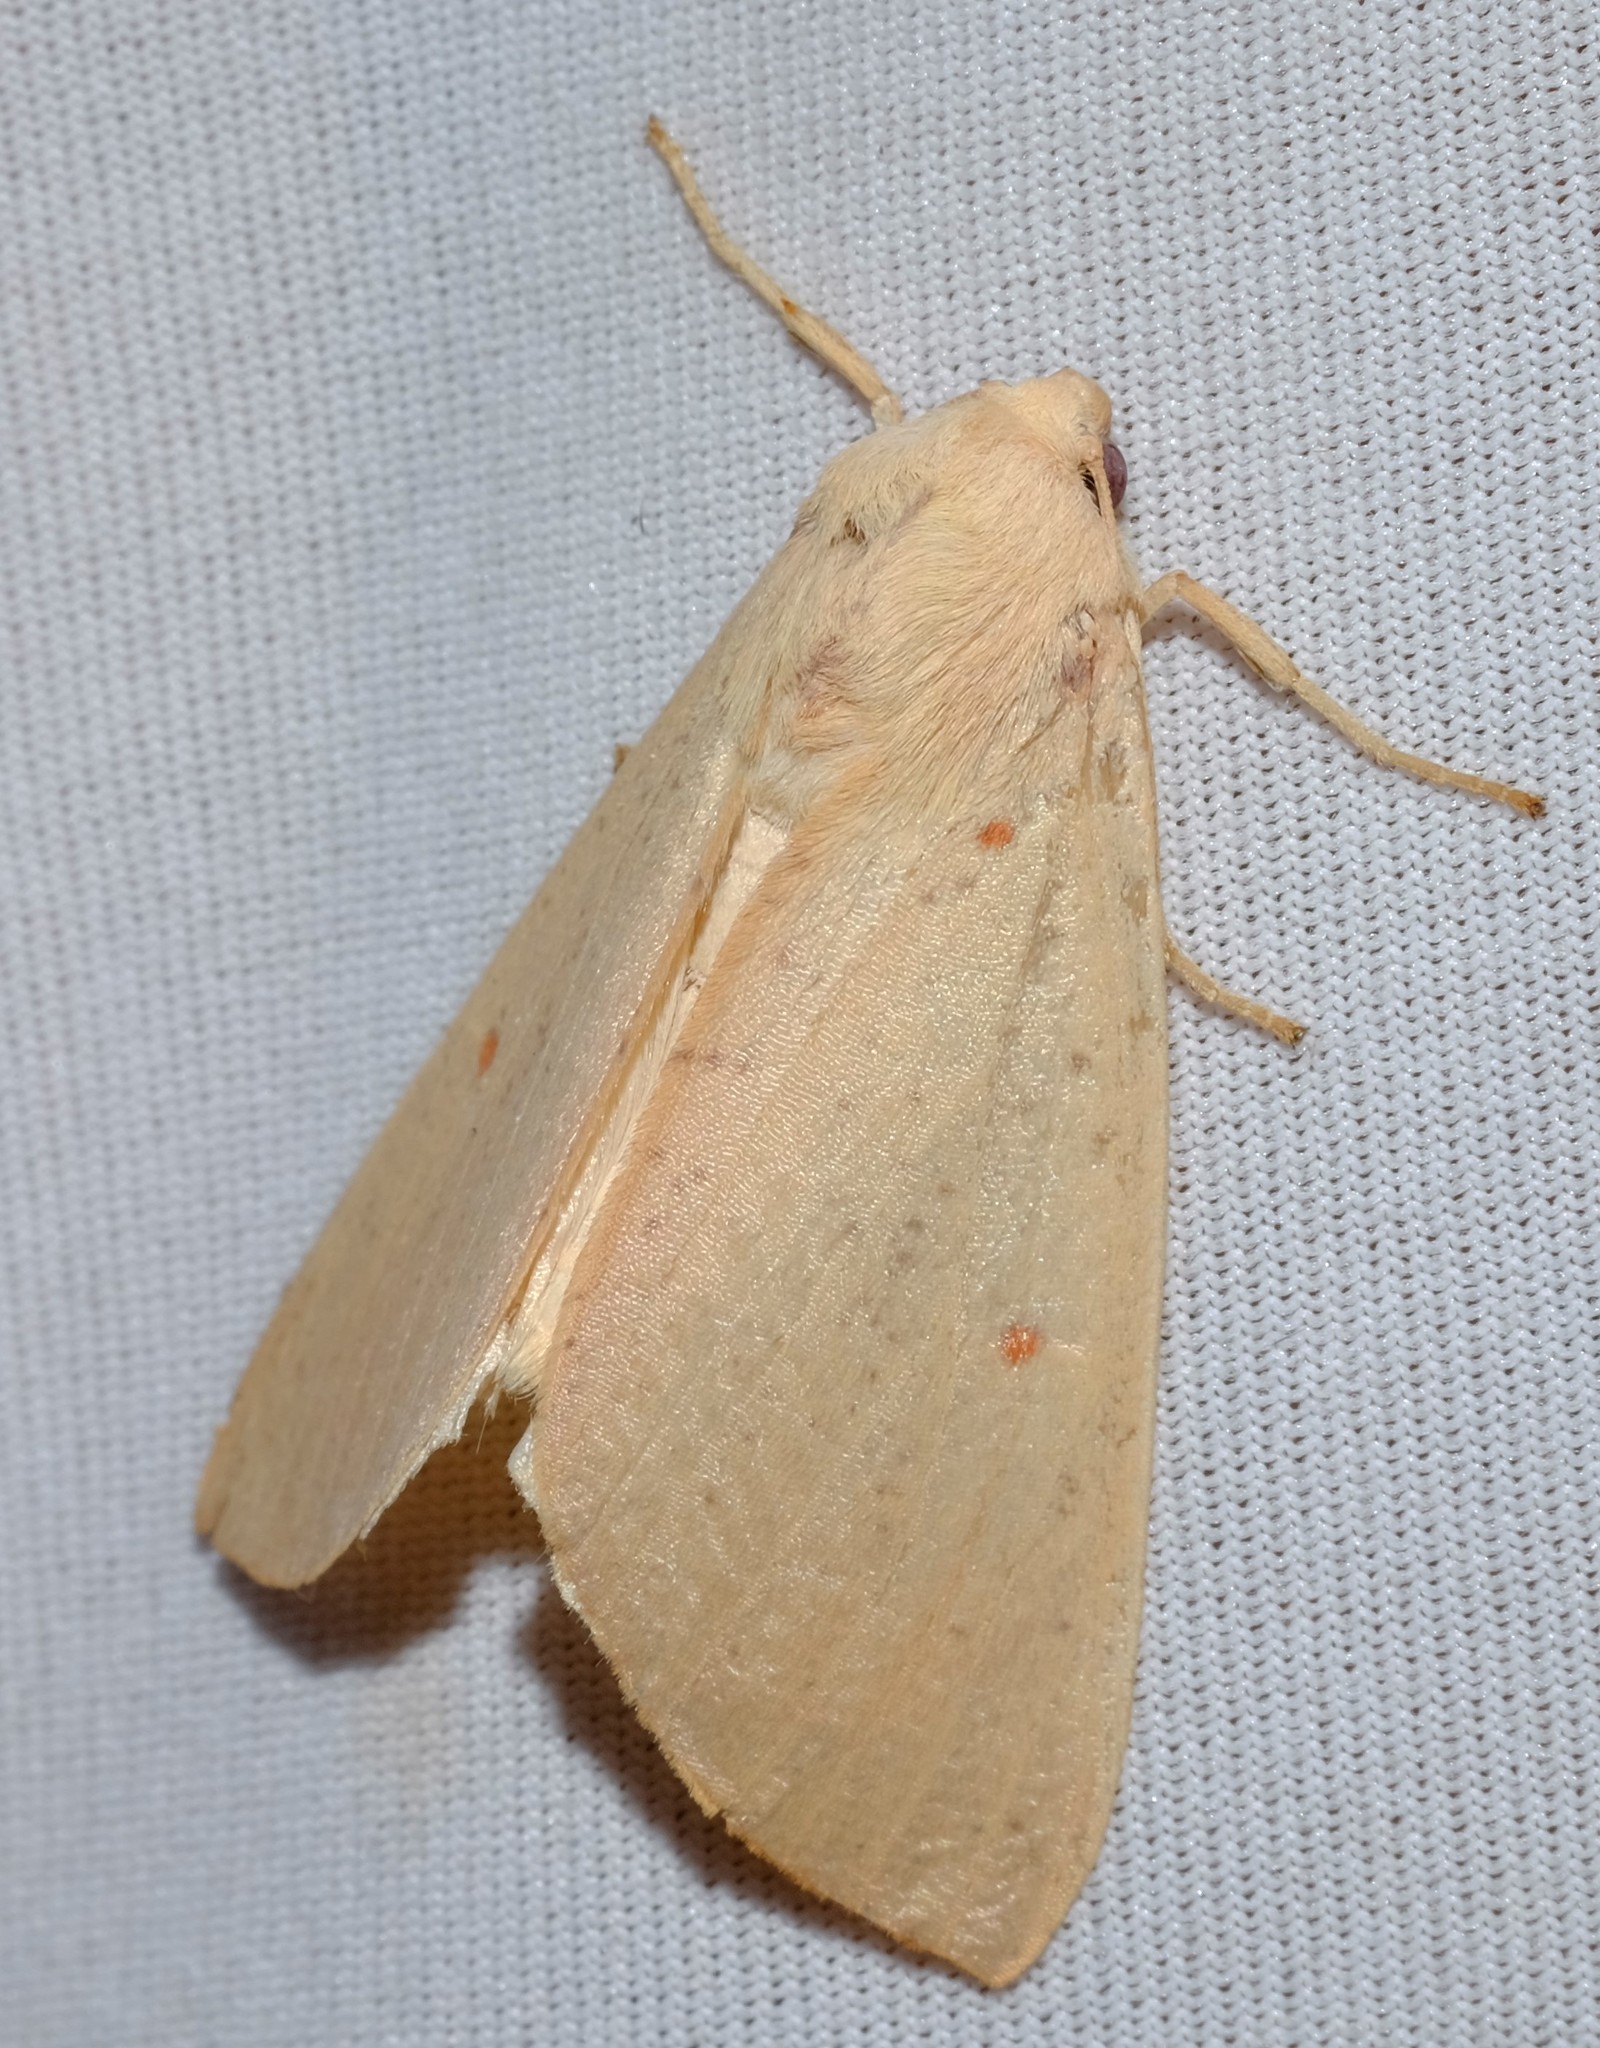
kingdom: Animalia
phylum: Arthropoda
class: Insecta
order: Lepidoptera
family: Geometridae
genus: Plesanemma
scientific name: Plesanemma fucata
